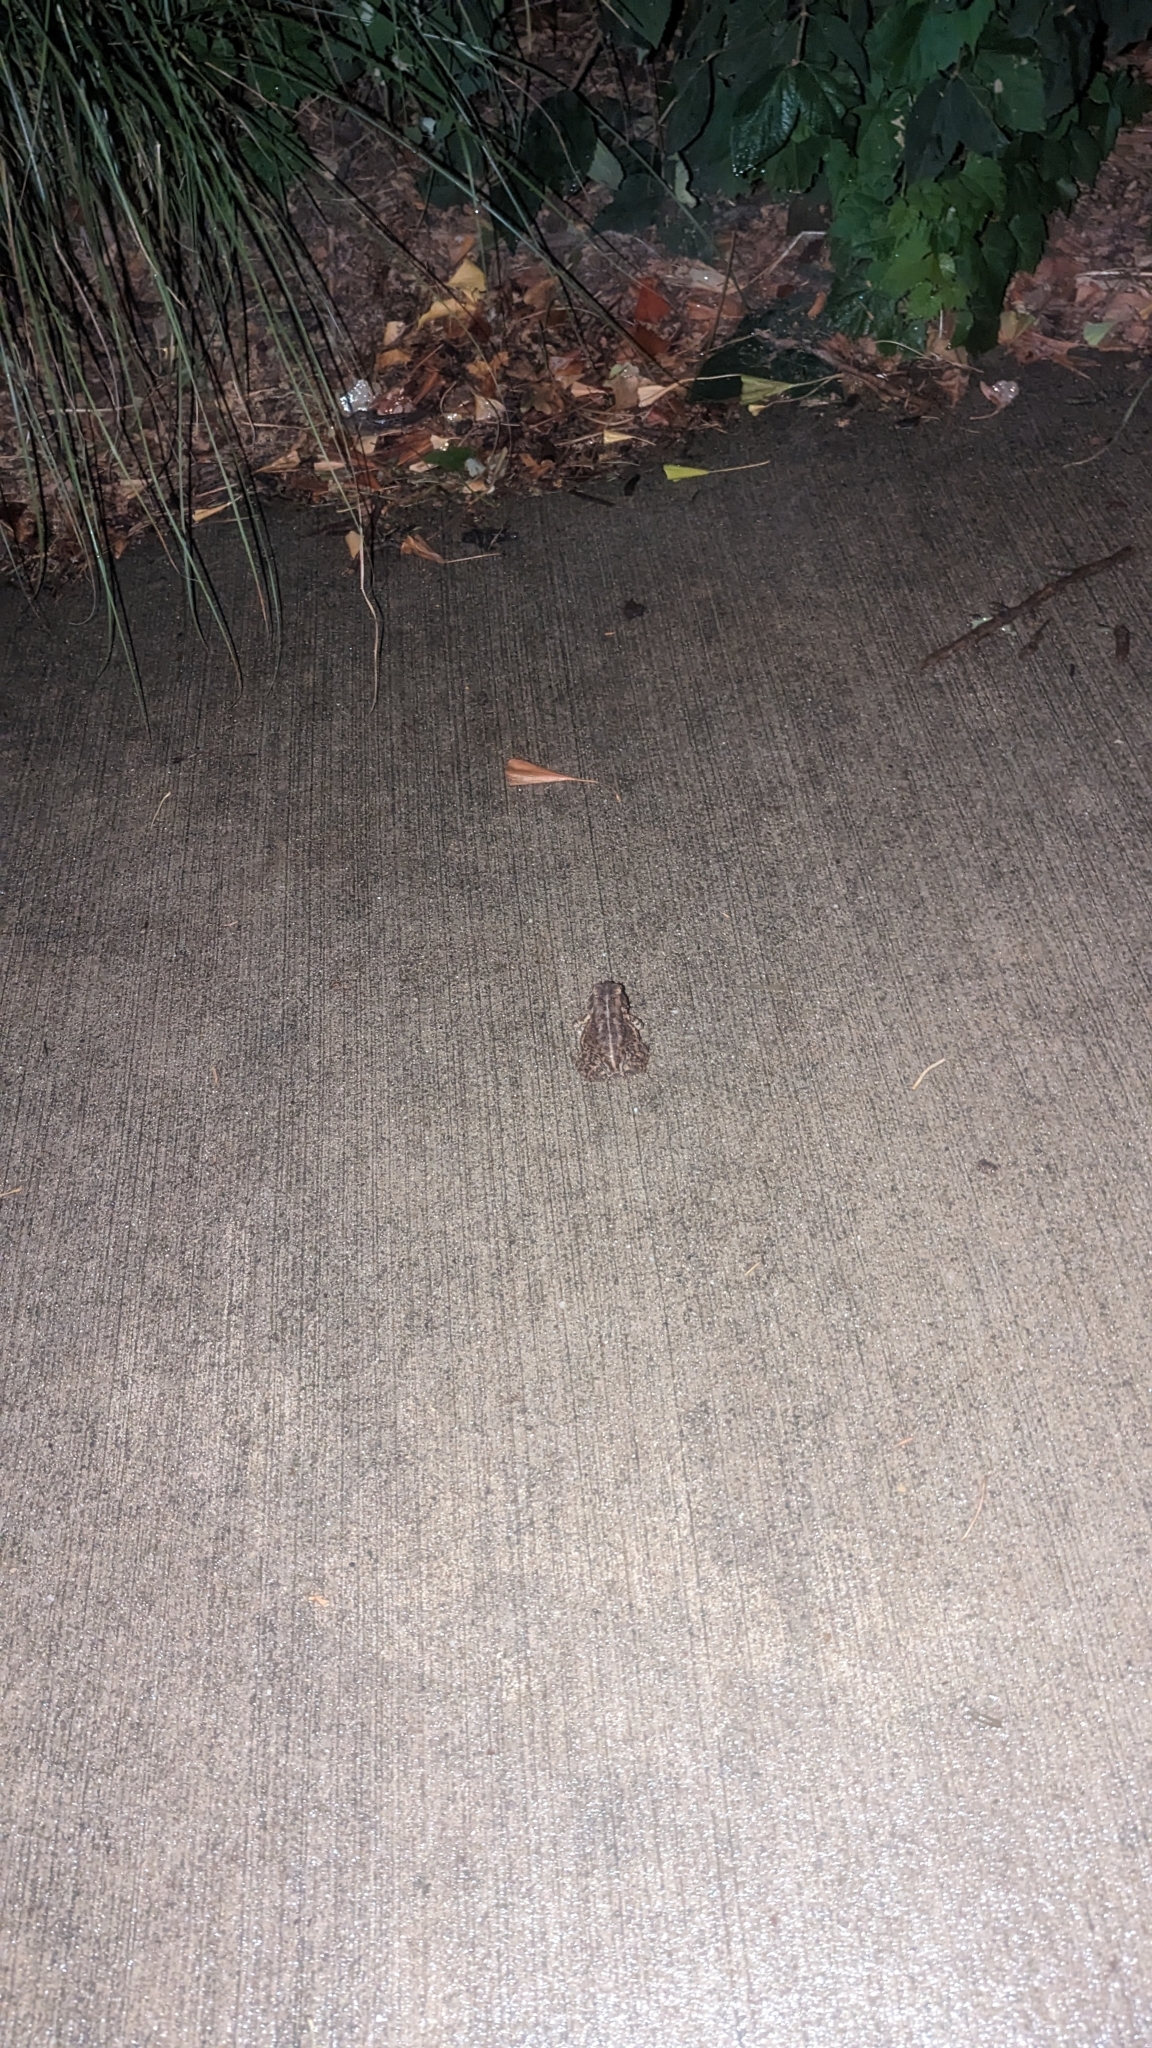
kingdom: Animalia
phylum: Chordata
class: Amphibia
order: Anura
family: Bufonidae
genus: Anaxyrus
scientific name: Anaxyrus americanus
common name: American toad
